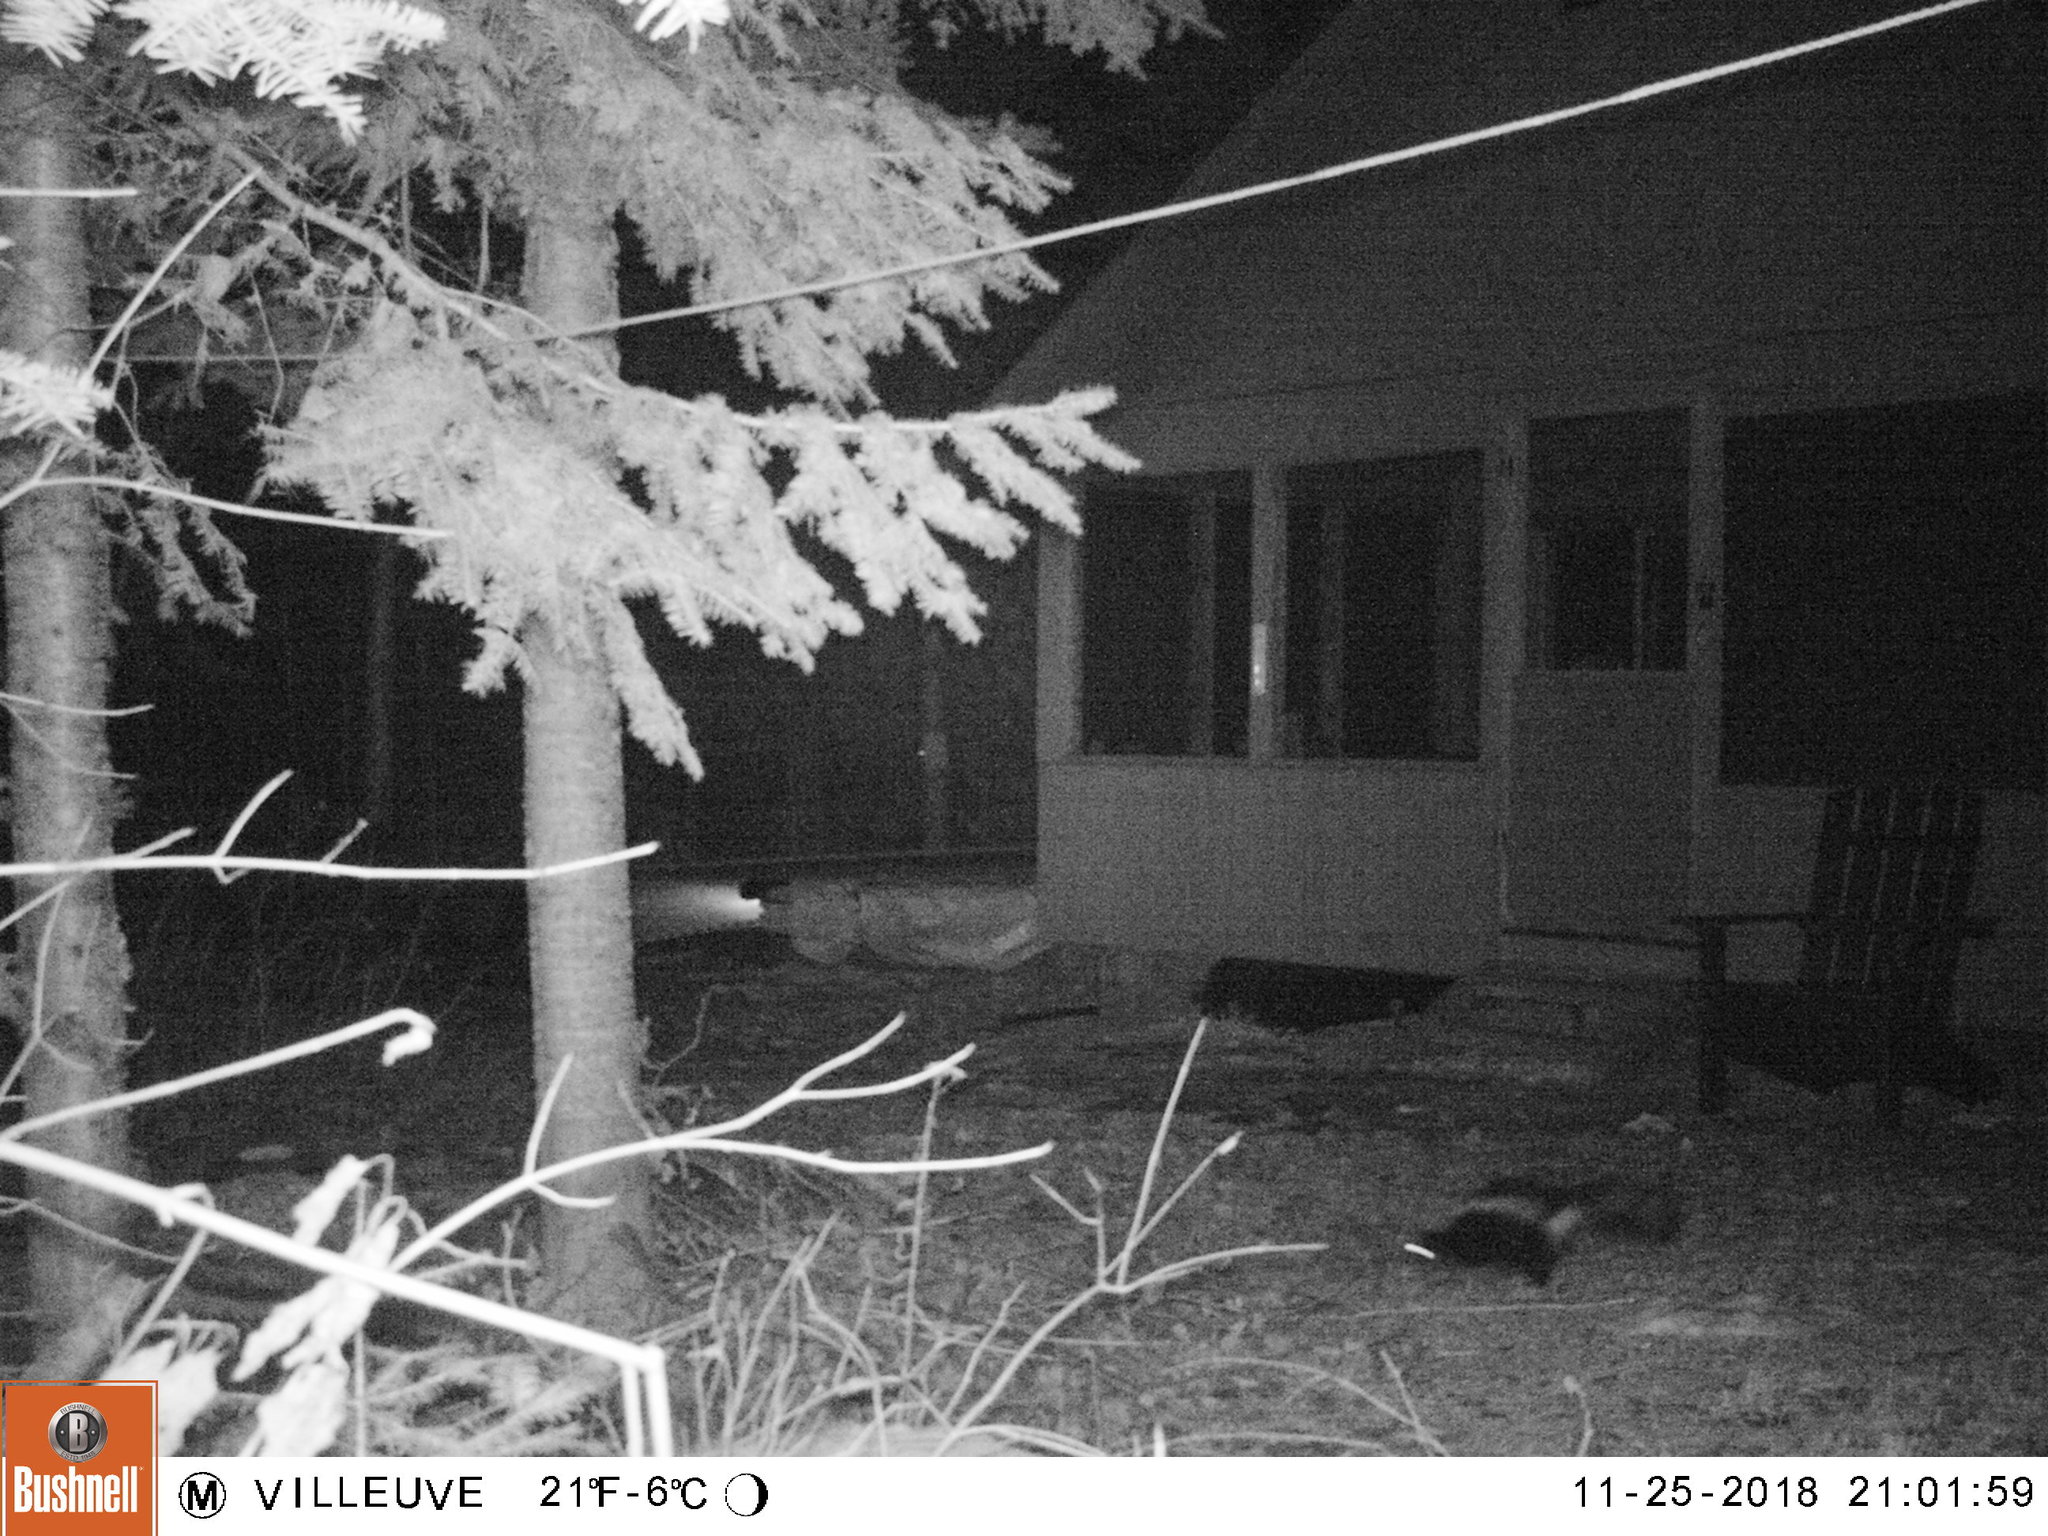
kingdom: Animalia
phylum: Chordata
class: Mammalia
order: Carnivora
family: Mephitidae
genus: Mephitis
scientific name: Mephitis mephitis
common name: Striped skunk
